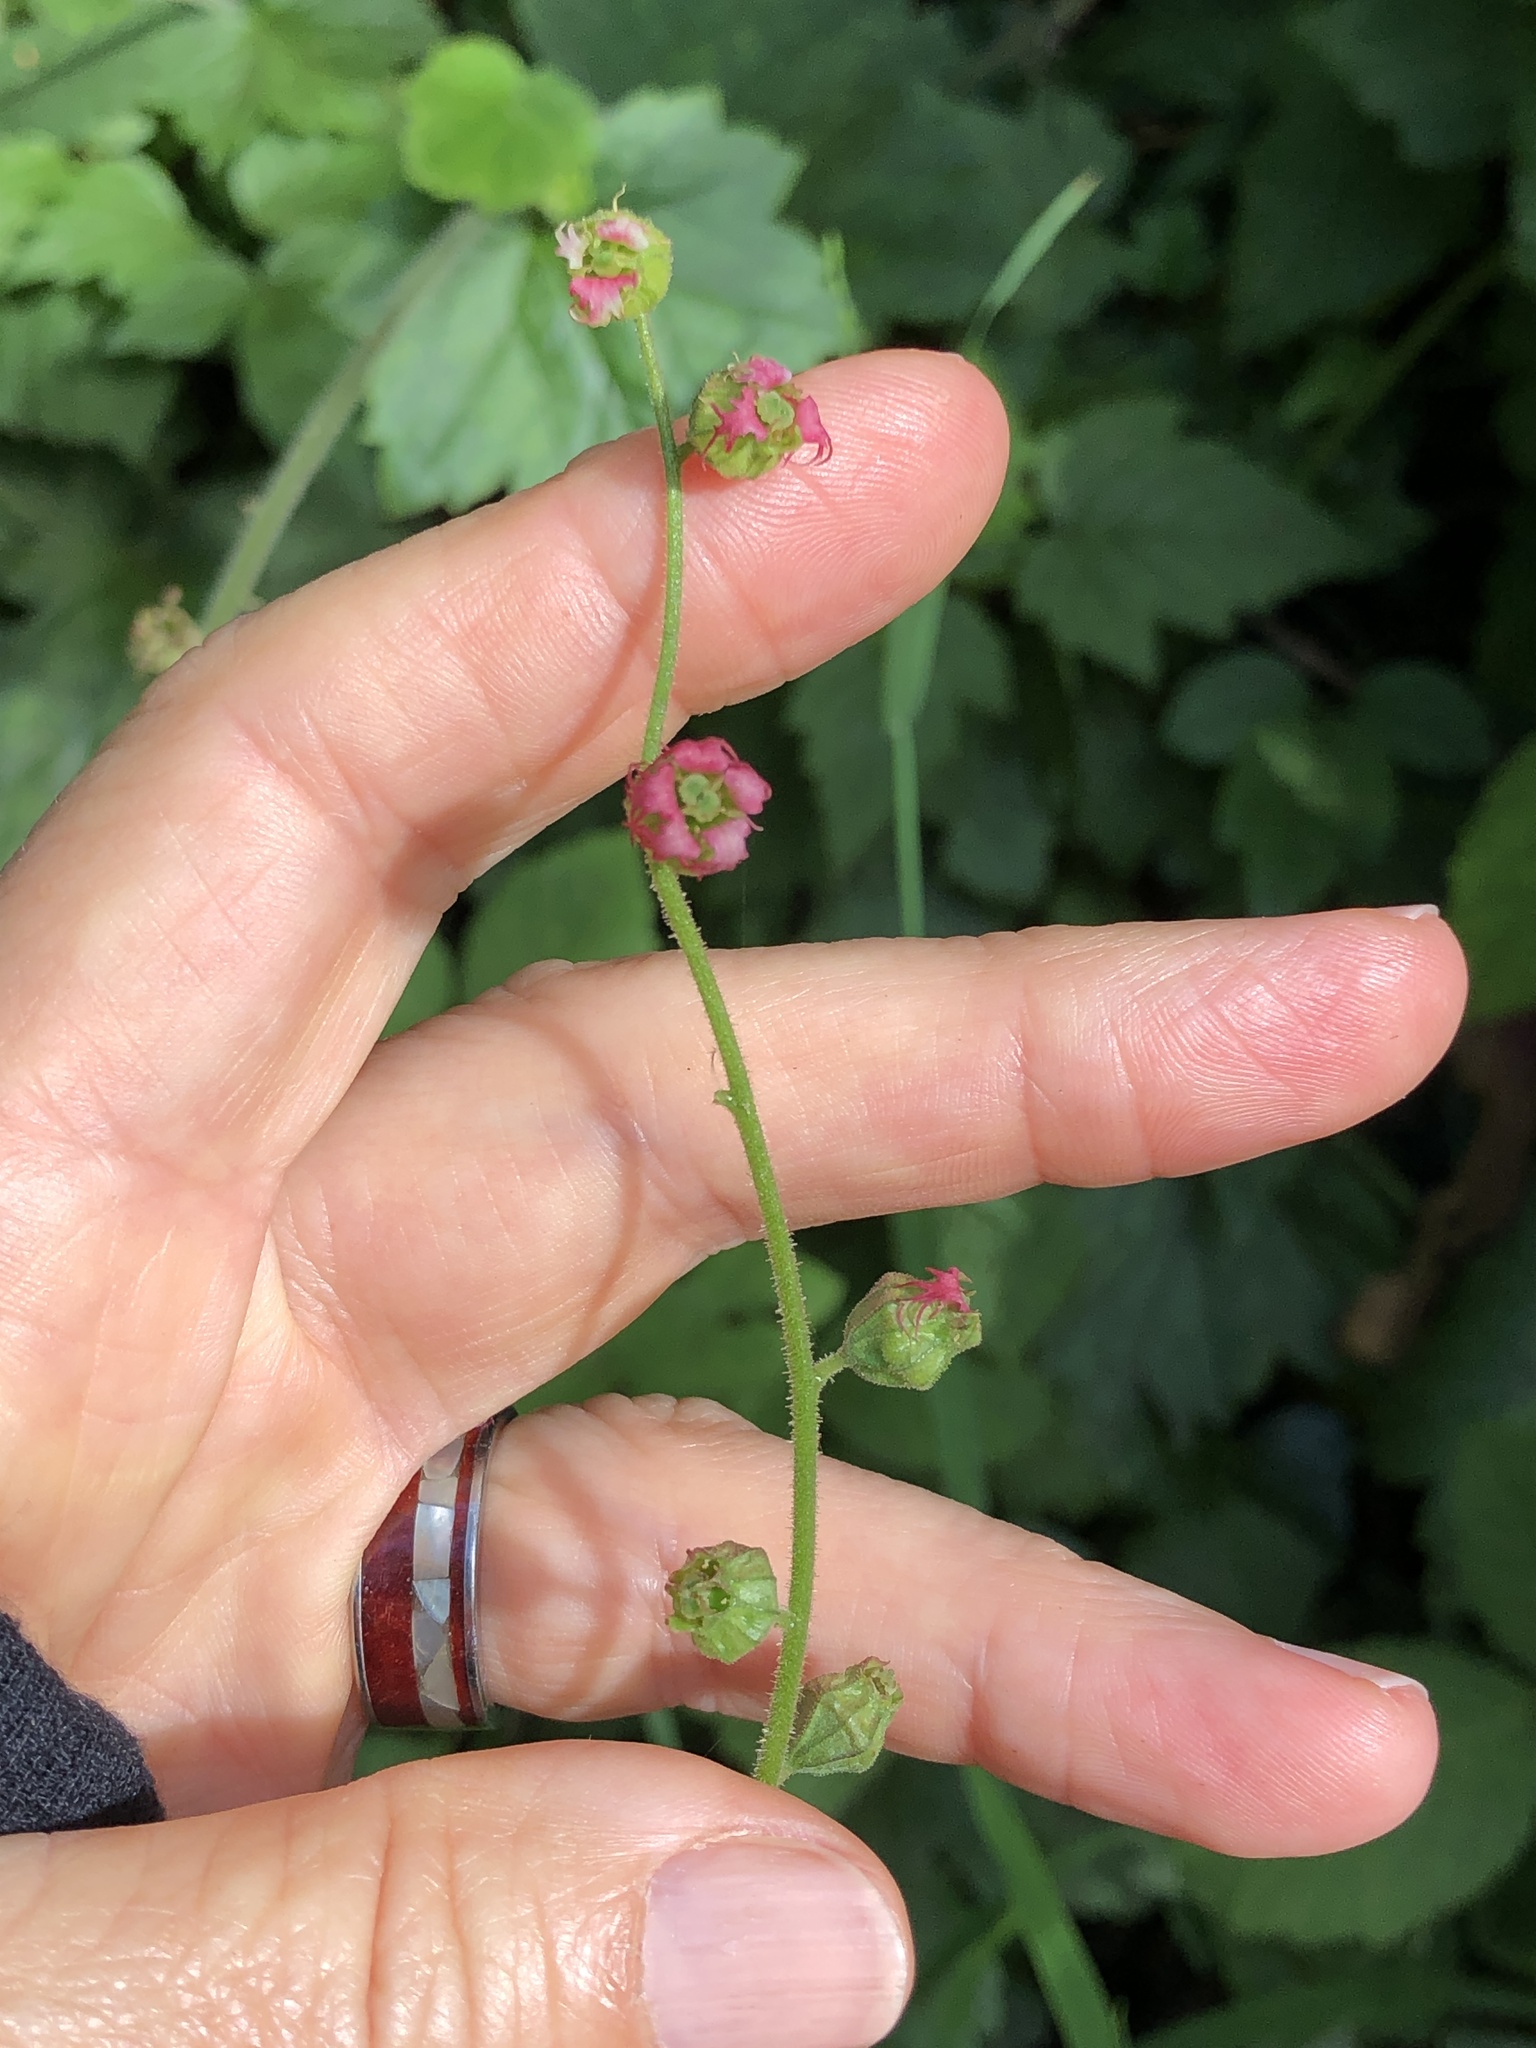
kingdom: Plantae
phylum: Tracheophyta
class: Magnoliopsida
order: Saxifragales
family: Saxifragaceae
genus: Tellima
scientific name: Tellima grandiflora
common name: Fringecups
